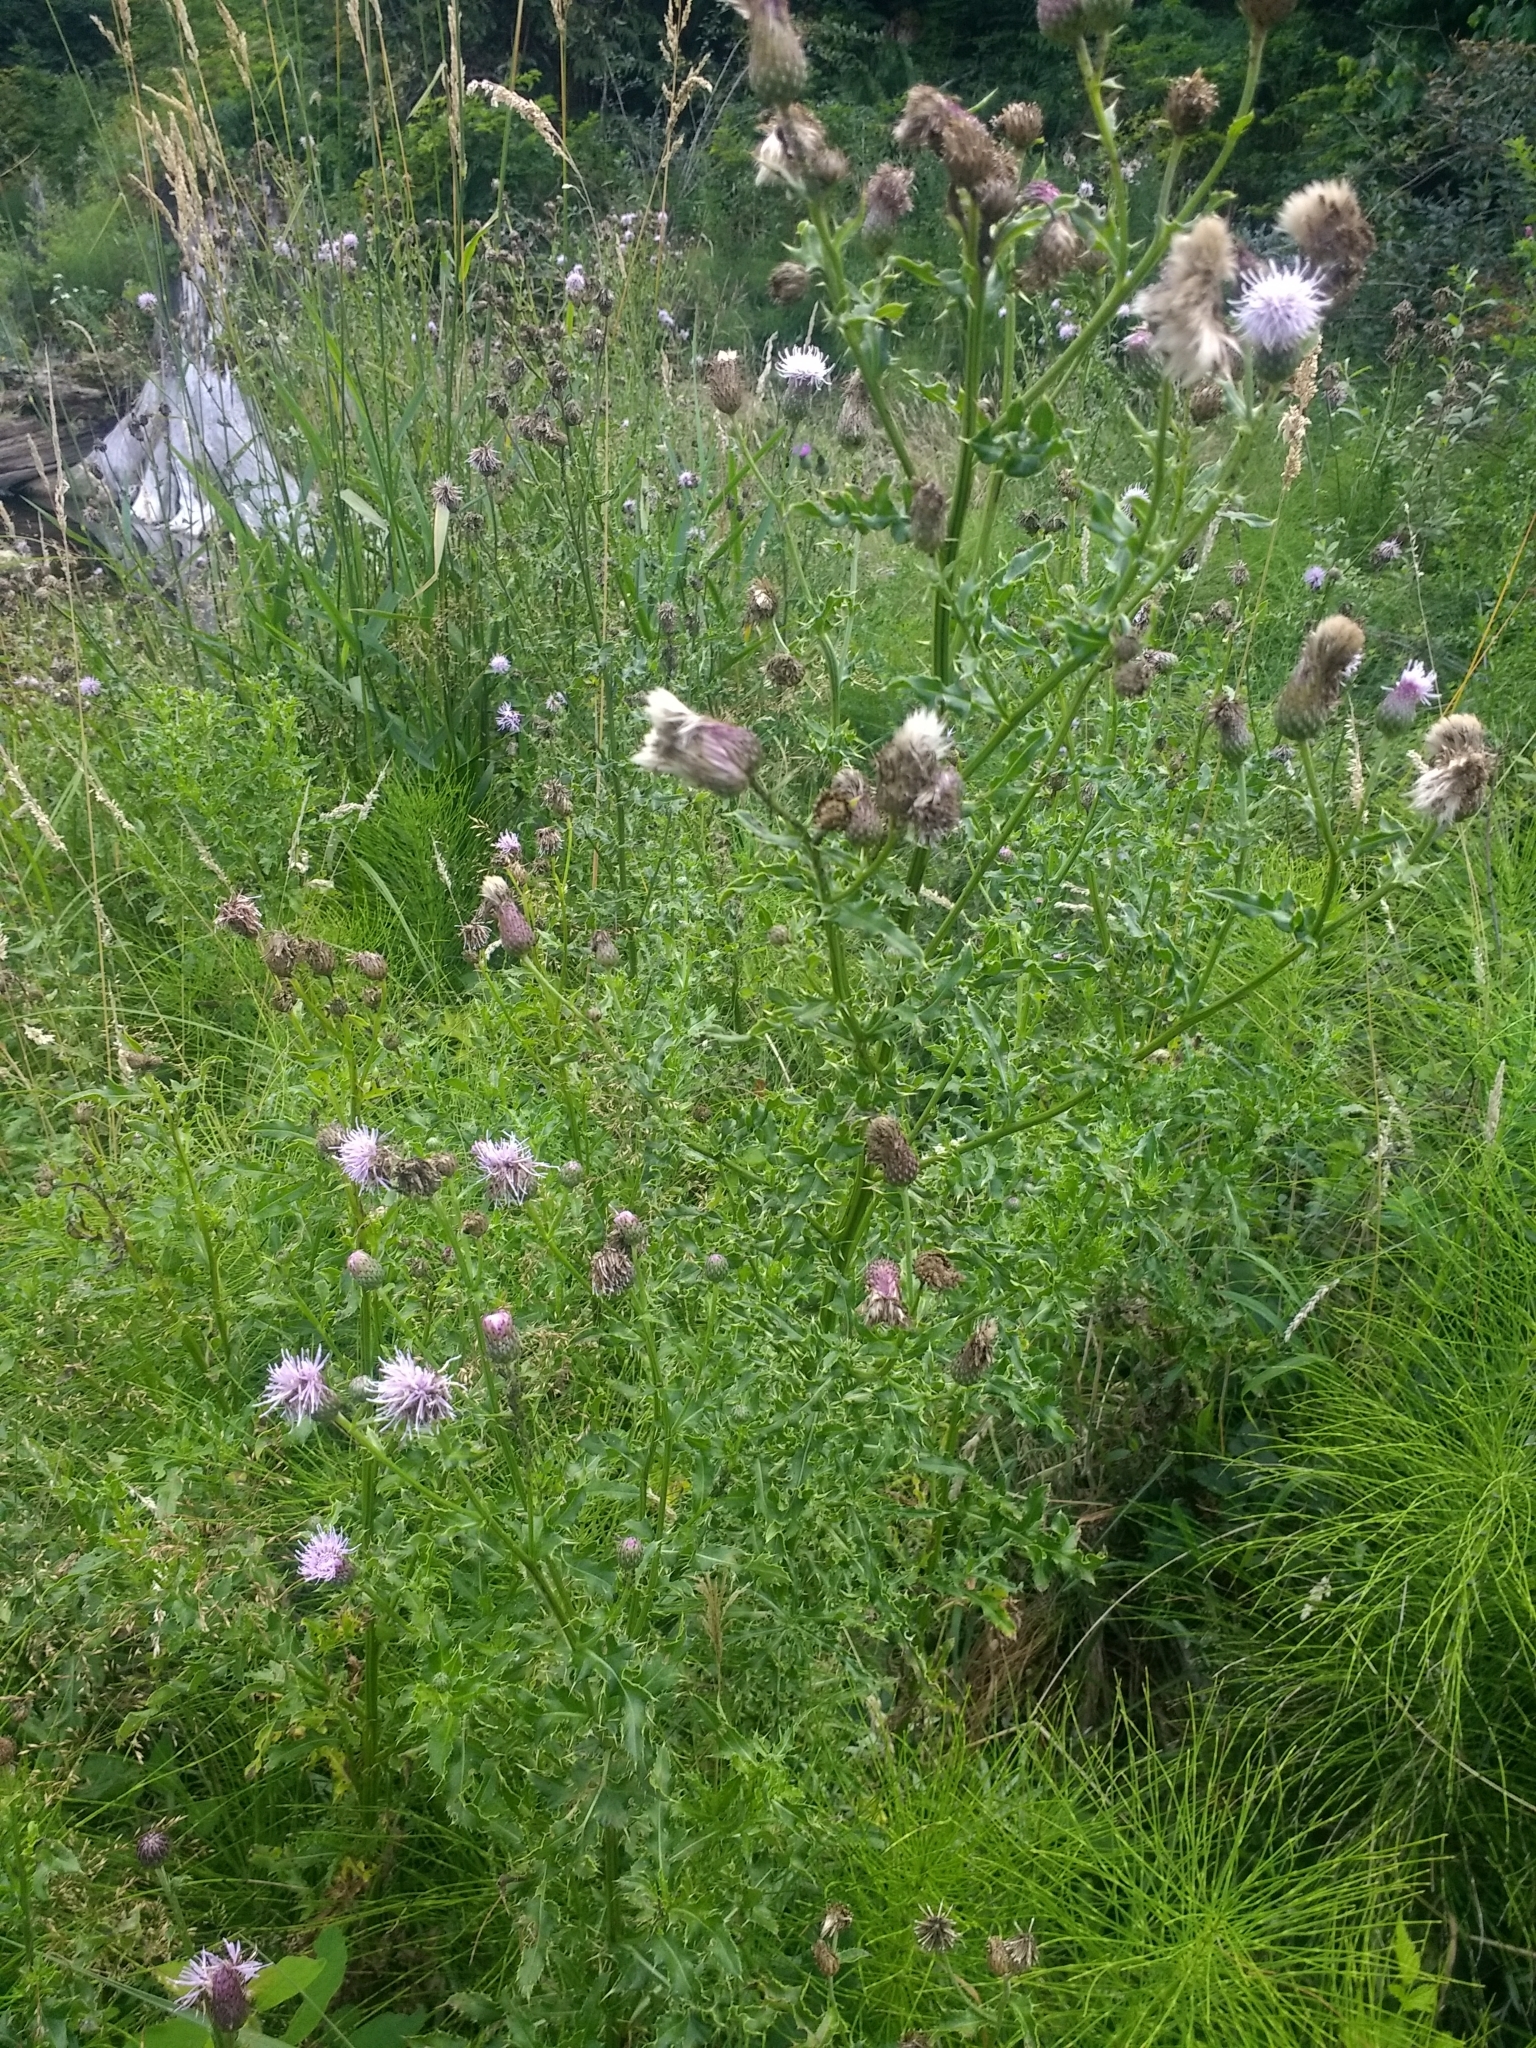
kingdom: Plantae
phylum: Tracheophyta
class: Magnoliopsida
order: Asterales
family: Asteraceae
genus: Cirsium
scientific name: Cirsium arvense
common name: Creeping thistle
